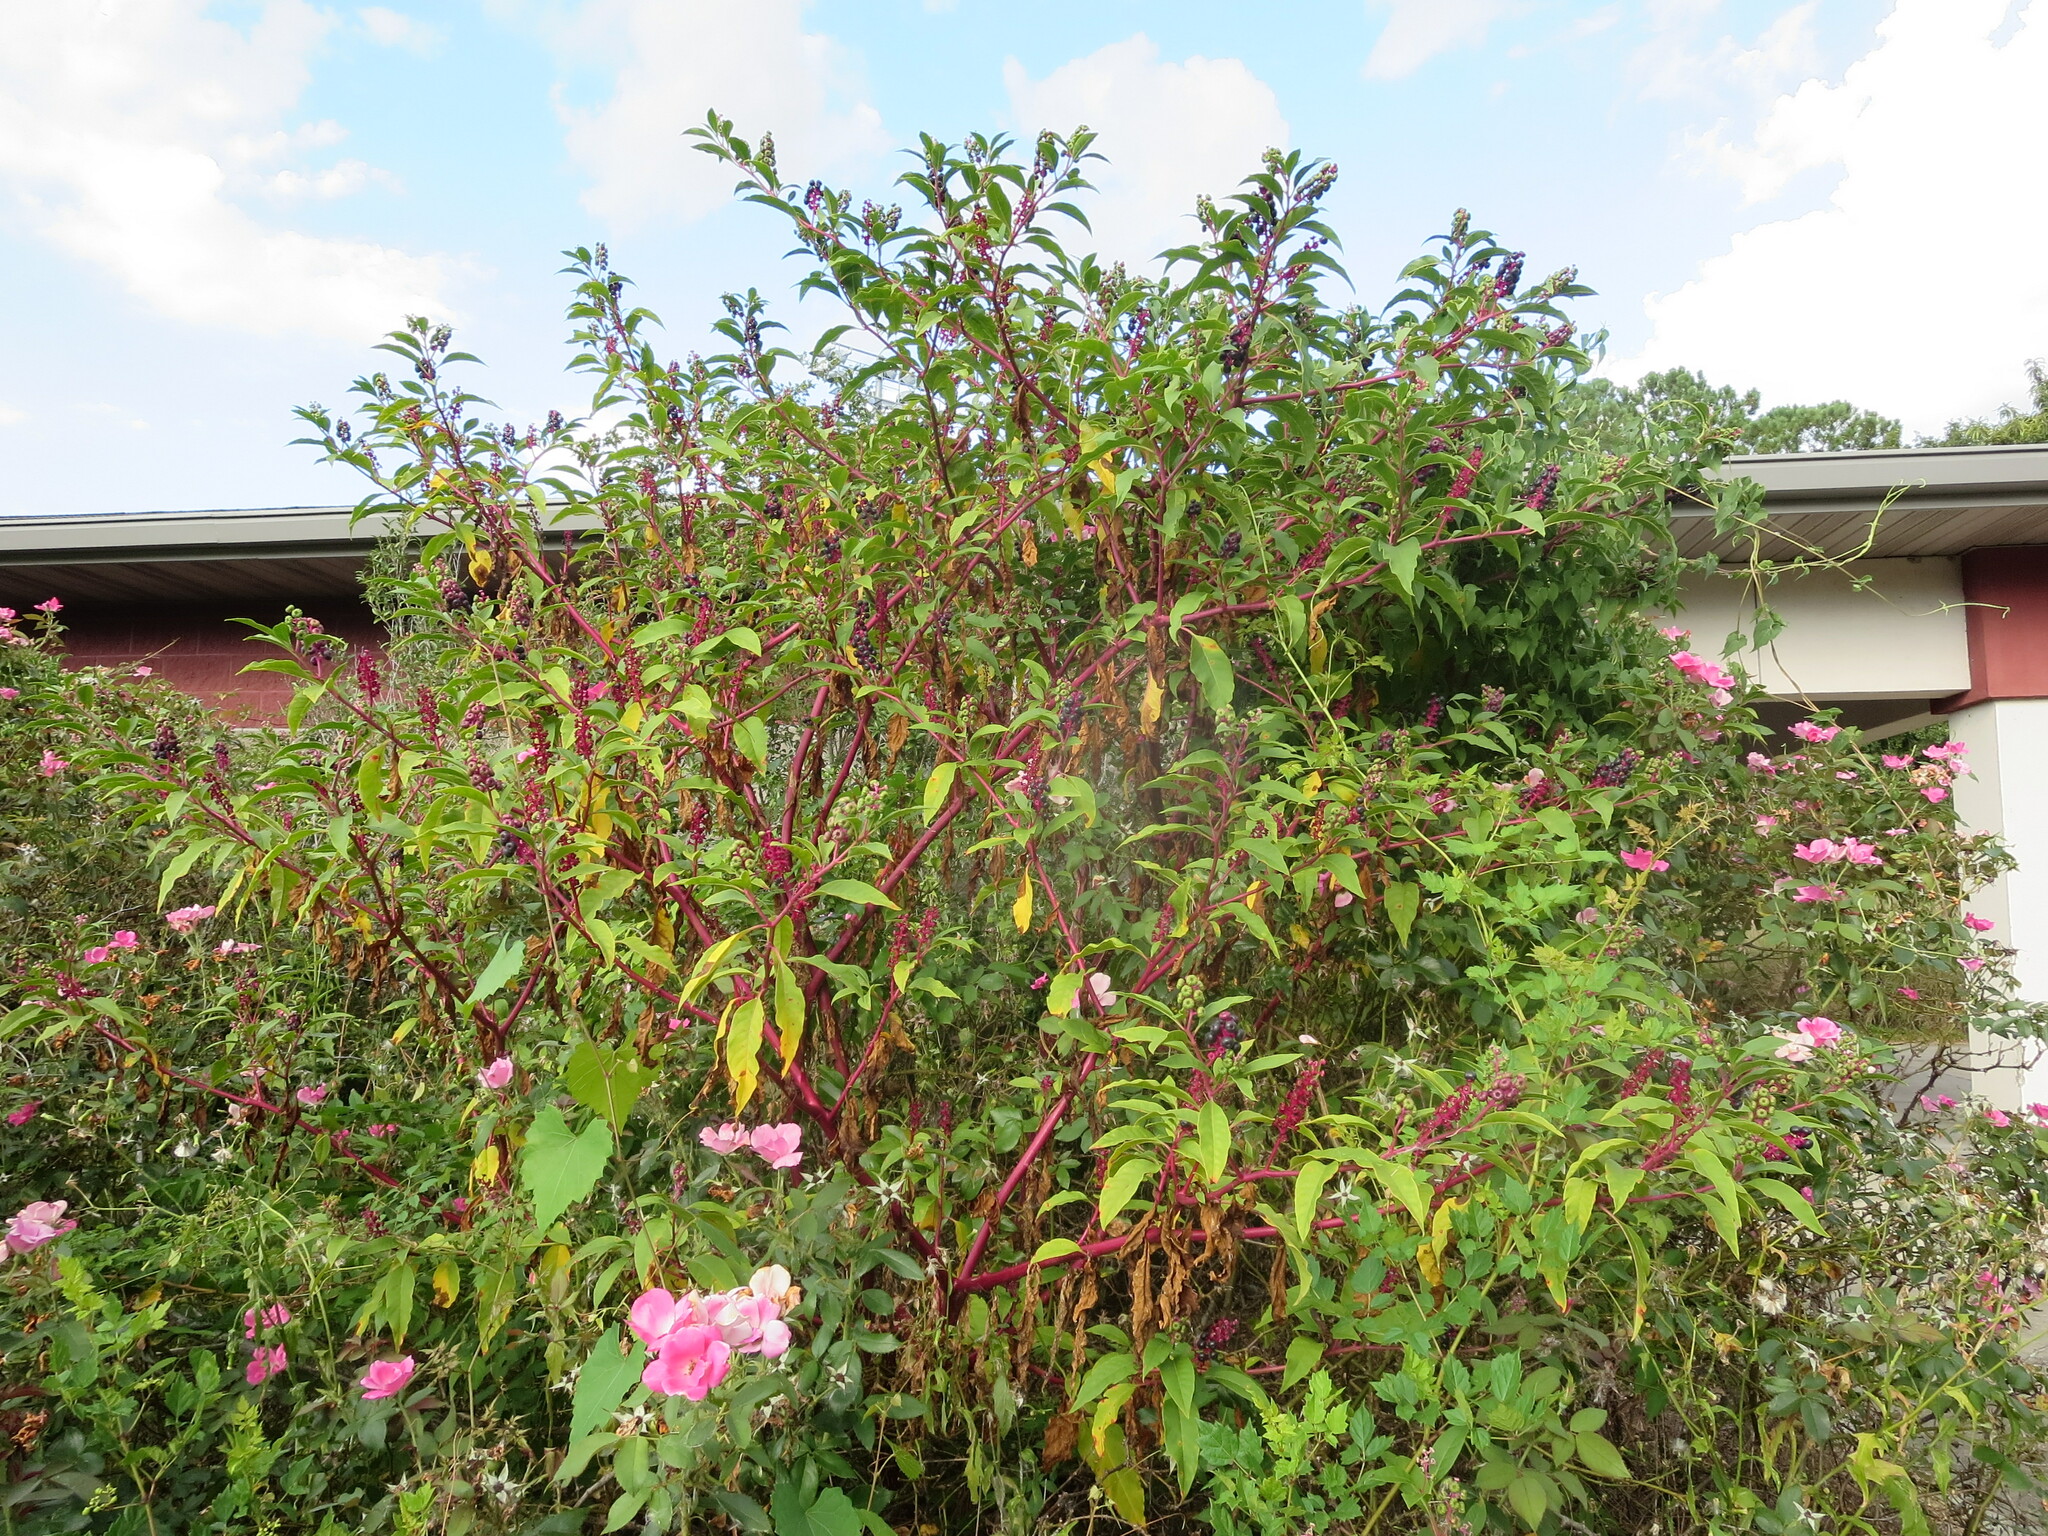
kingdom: Plantae
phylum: Tracheophyta
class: Magnoliopsida
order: Caryophyllales
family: Phytolaccaceae
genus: Phytolacca
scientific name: Phytolacca americana
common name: American pokeweed
